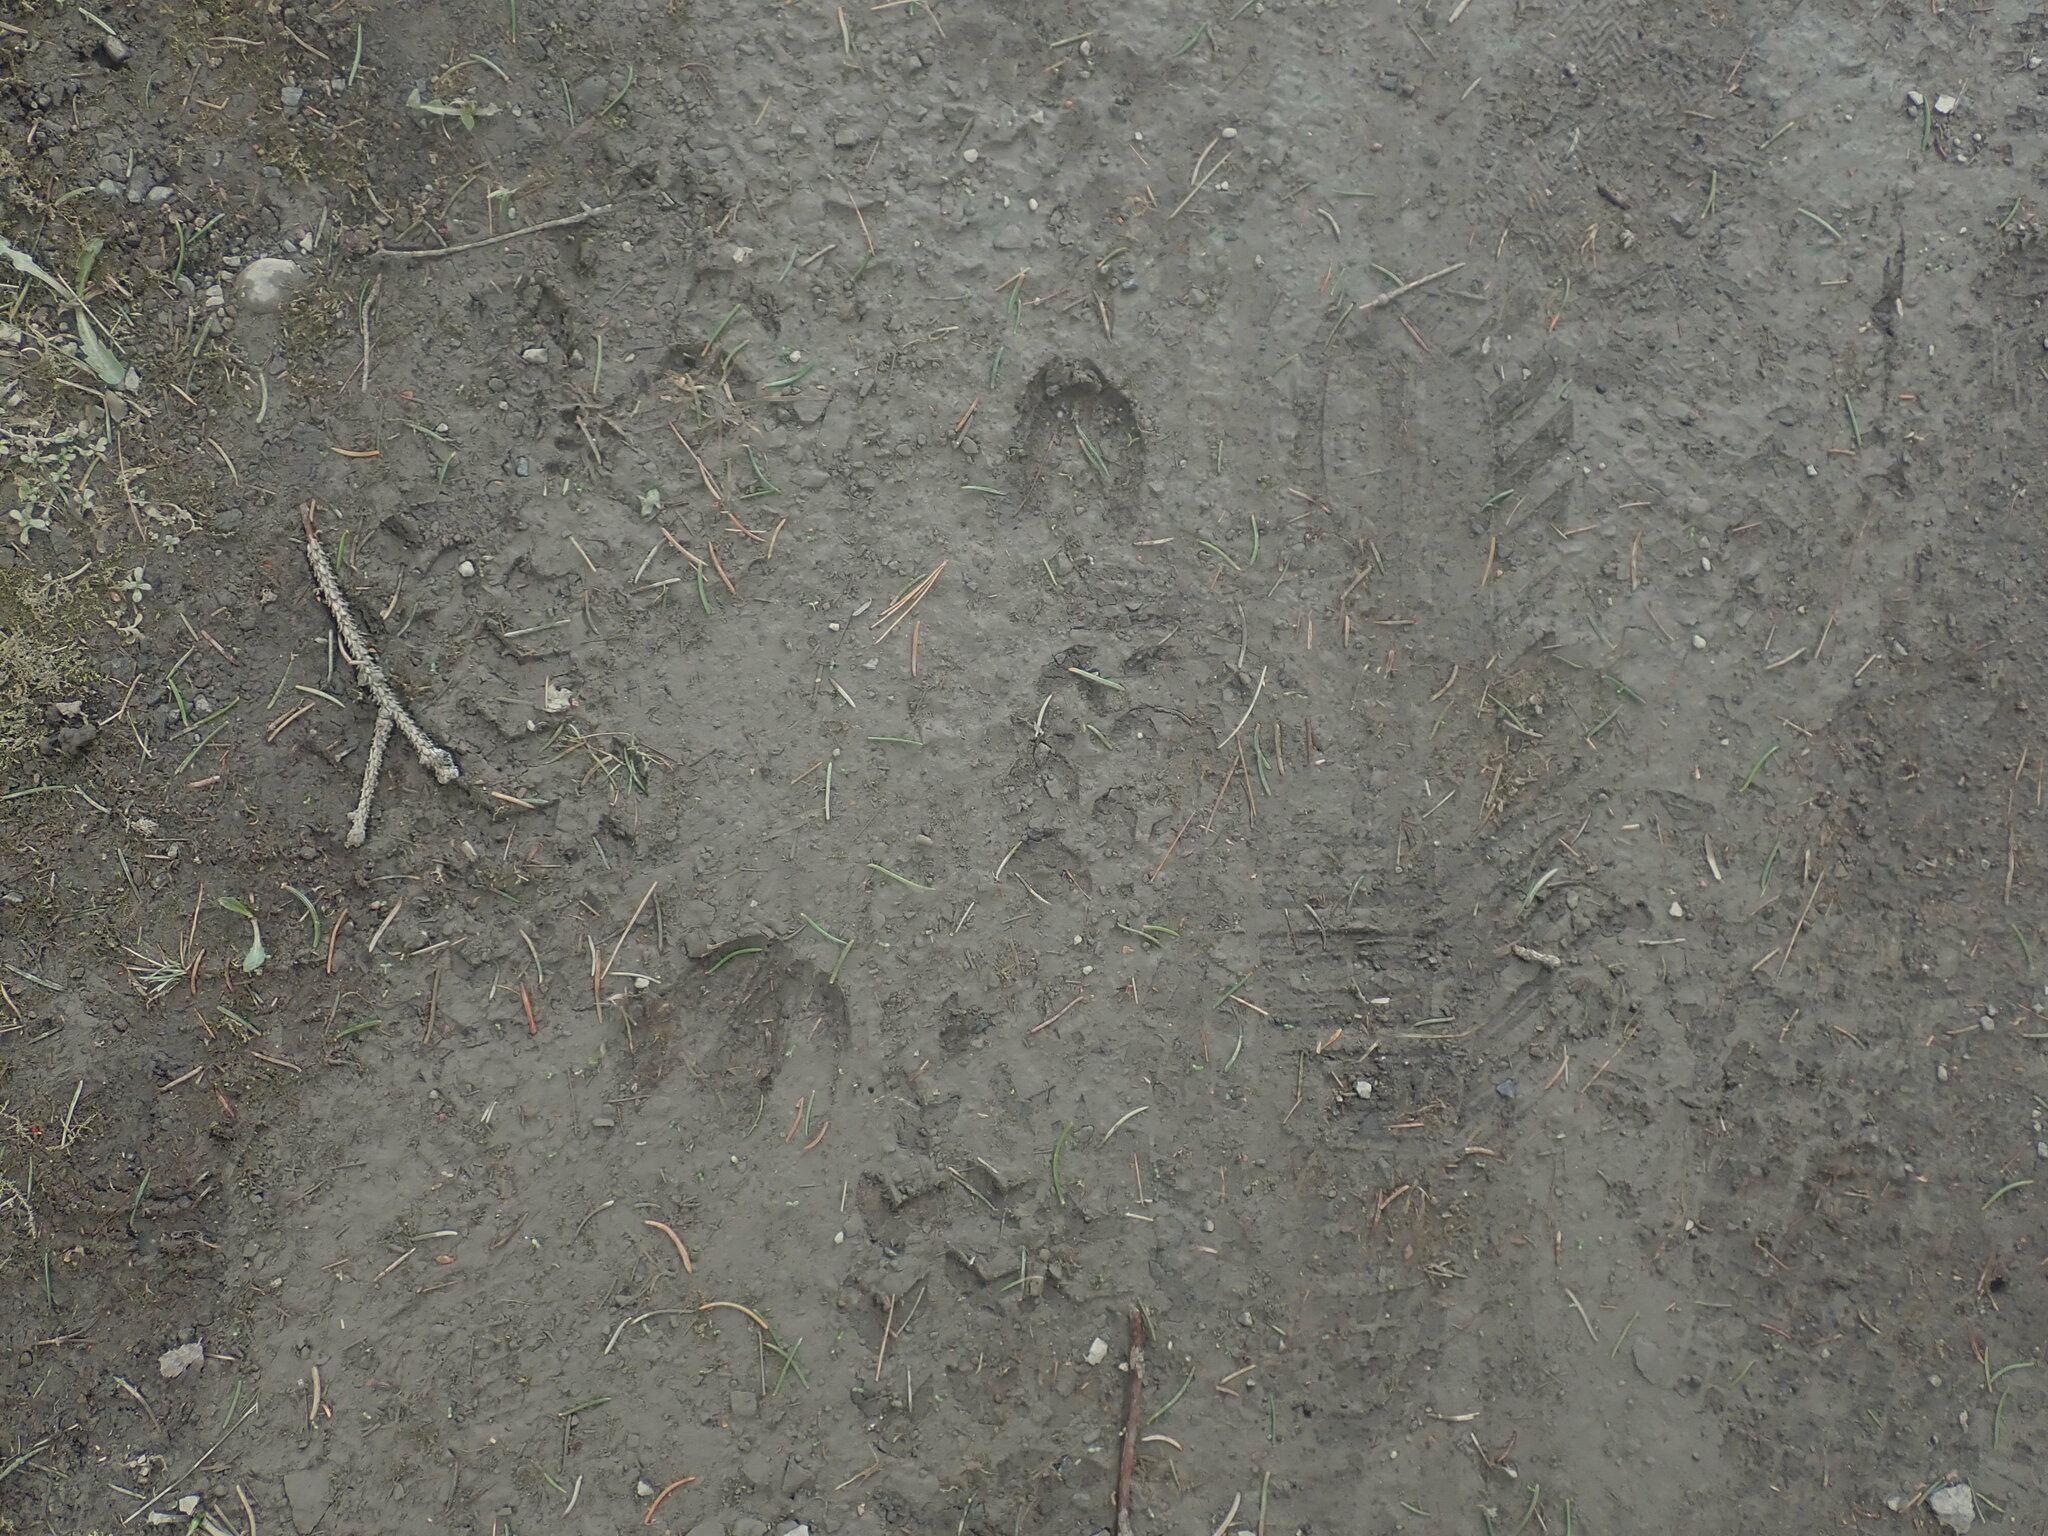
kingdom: Animalia
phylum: Chordata
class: Mammalia
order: Artiodactyla
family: Cervidae
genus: Odocoileus
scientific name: Odocoileus virginianus
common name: White-tailed deer
